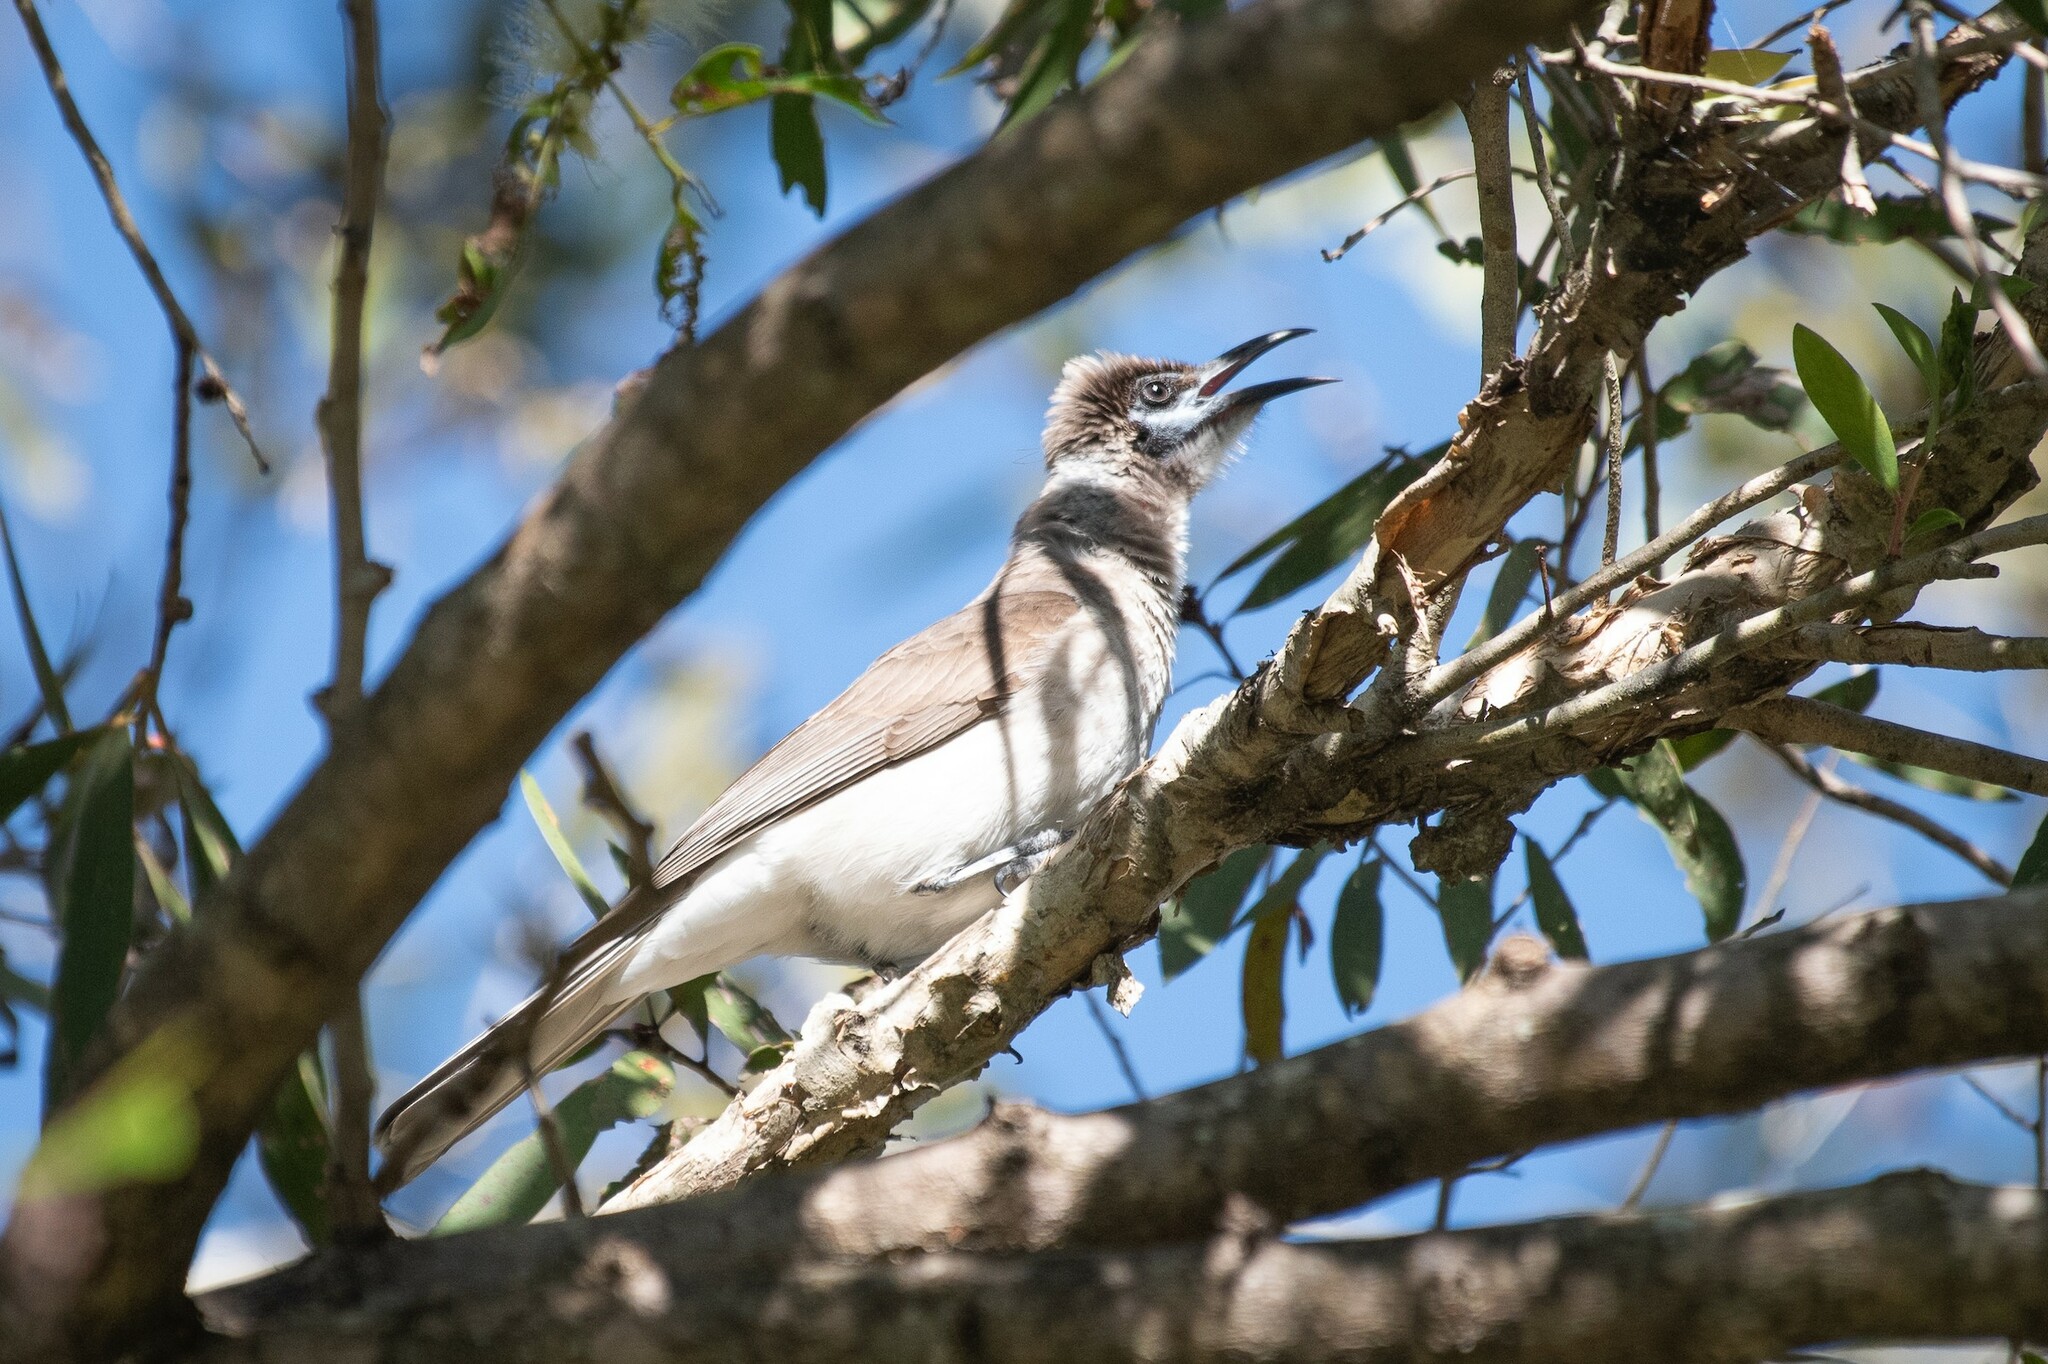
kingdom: Animalia
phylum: Chordata
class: Aves
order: Passeriformes
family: Meliphagidae
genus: Philemon
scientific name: Philemon citreogularis
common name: Little friarbird
